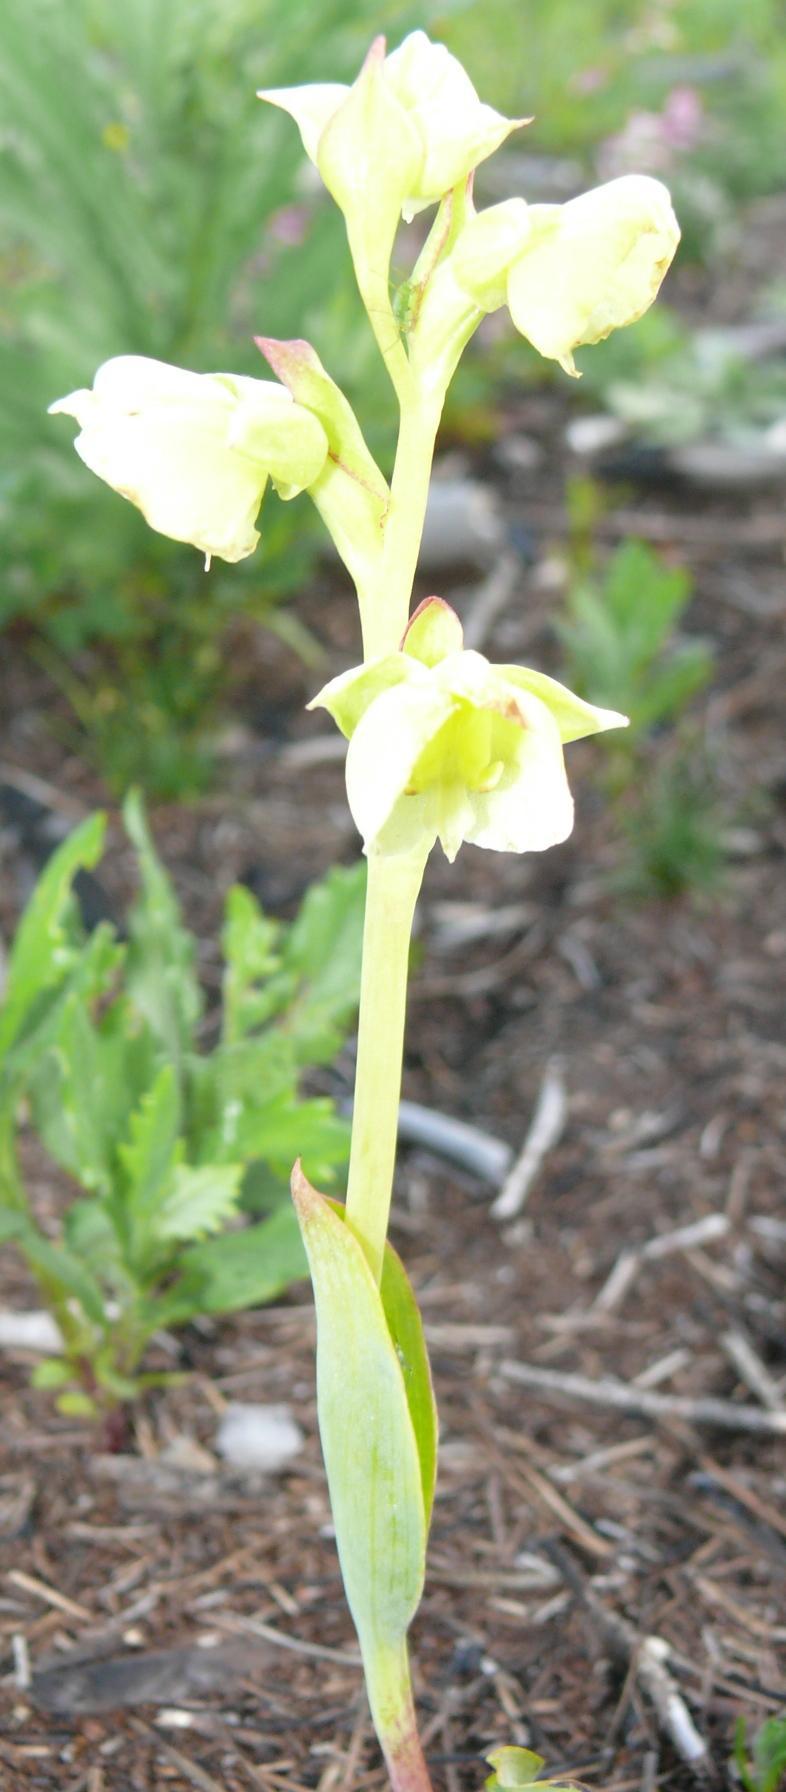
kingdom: Plantae
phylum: Tracheophyta
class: Liliopsida
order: Asparagales
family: Orchidaceae
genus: Pterygodium
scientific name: Pterygodium catholicum
